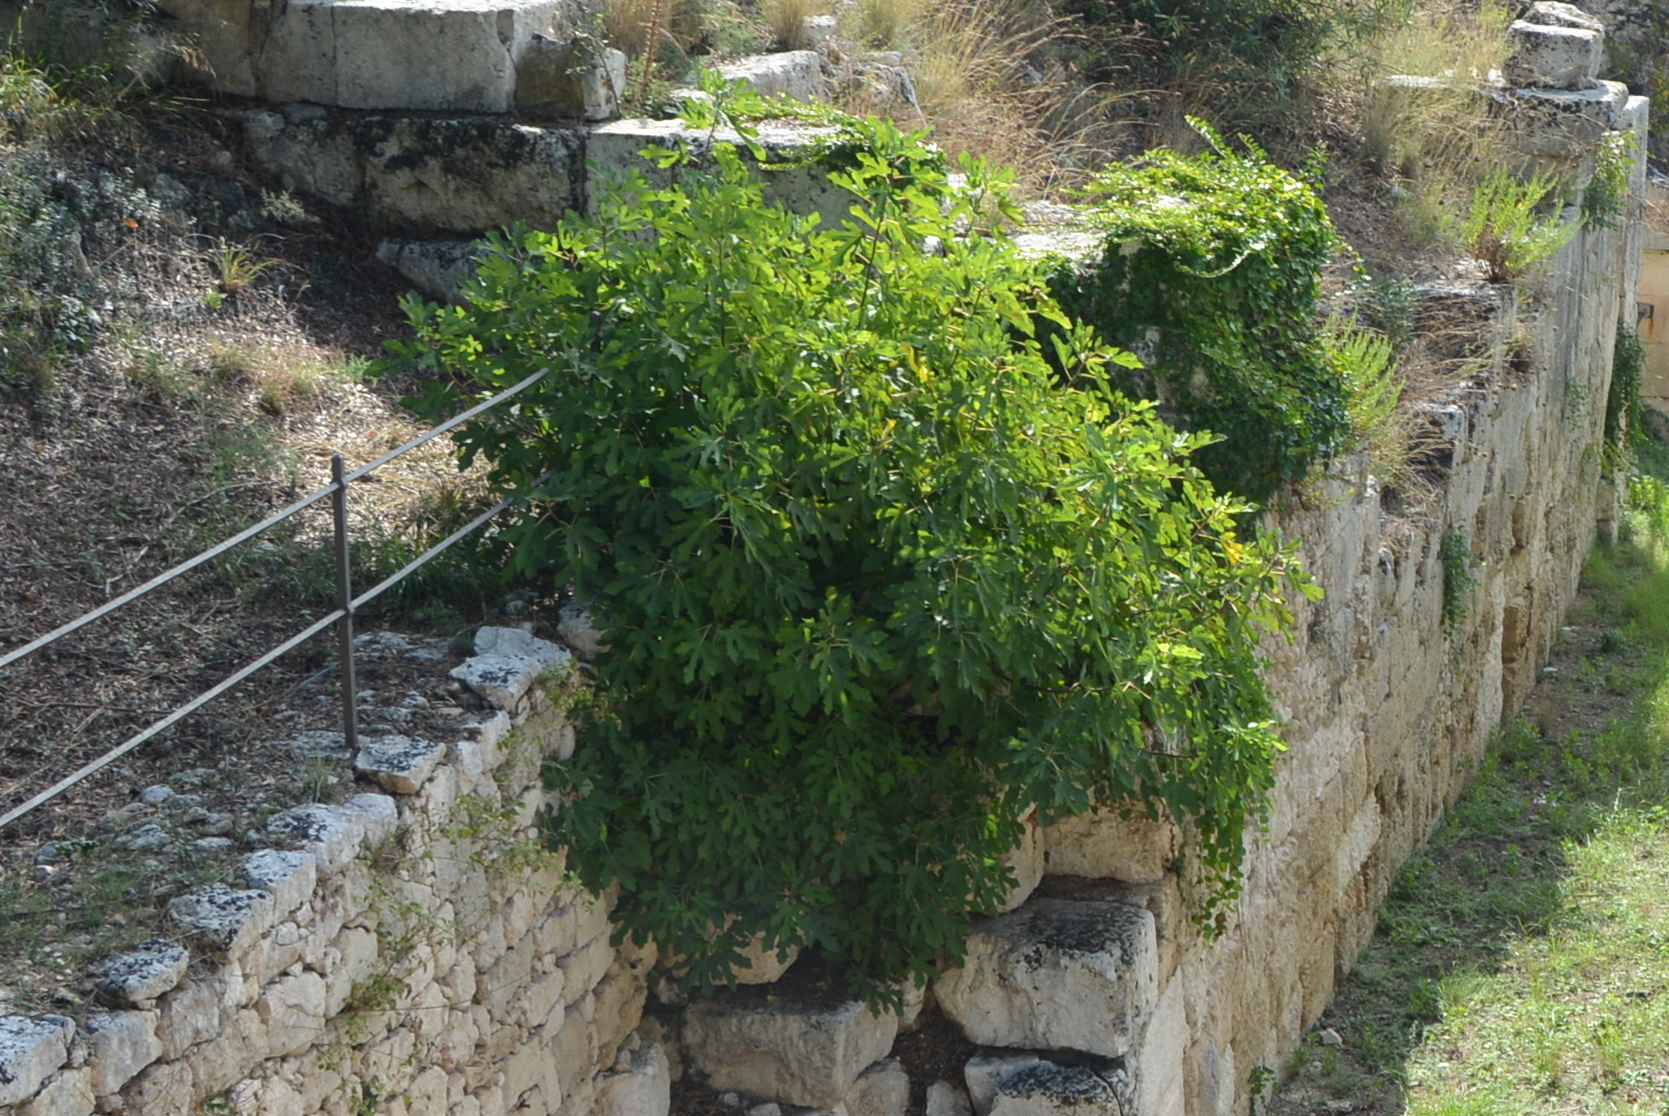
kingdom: Plantae
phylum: Tracheophyta
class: Magnoliopsida
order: Rosales
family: Moraceae
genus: Ficus
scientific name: Ficus carica
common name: Fig
